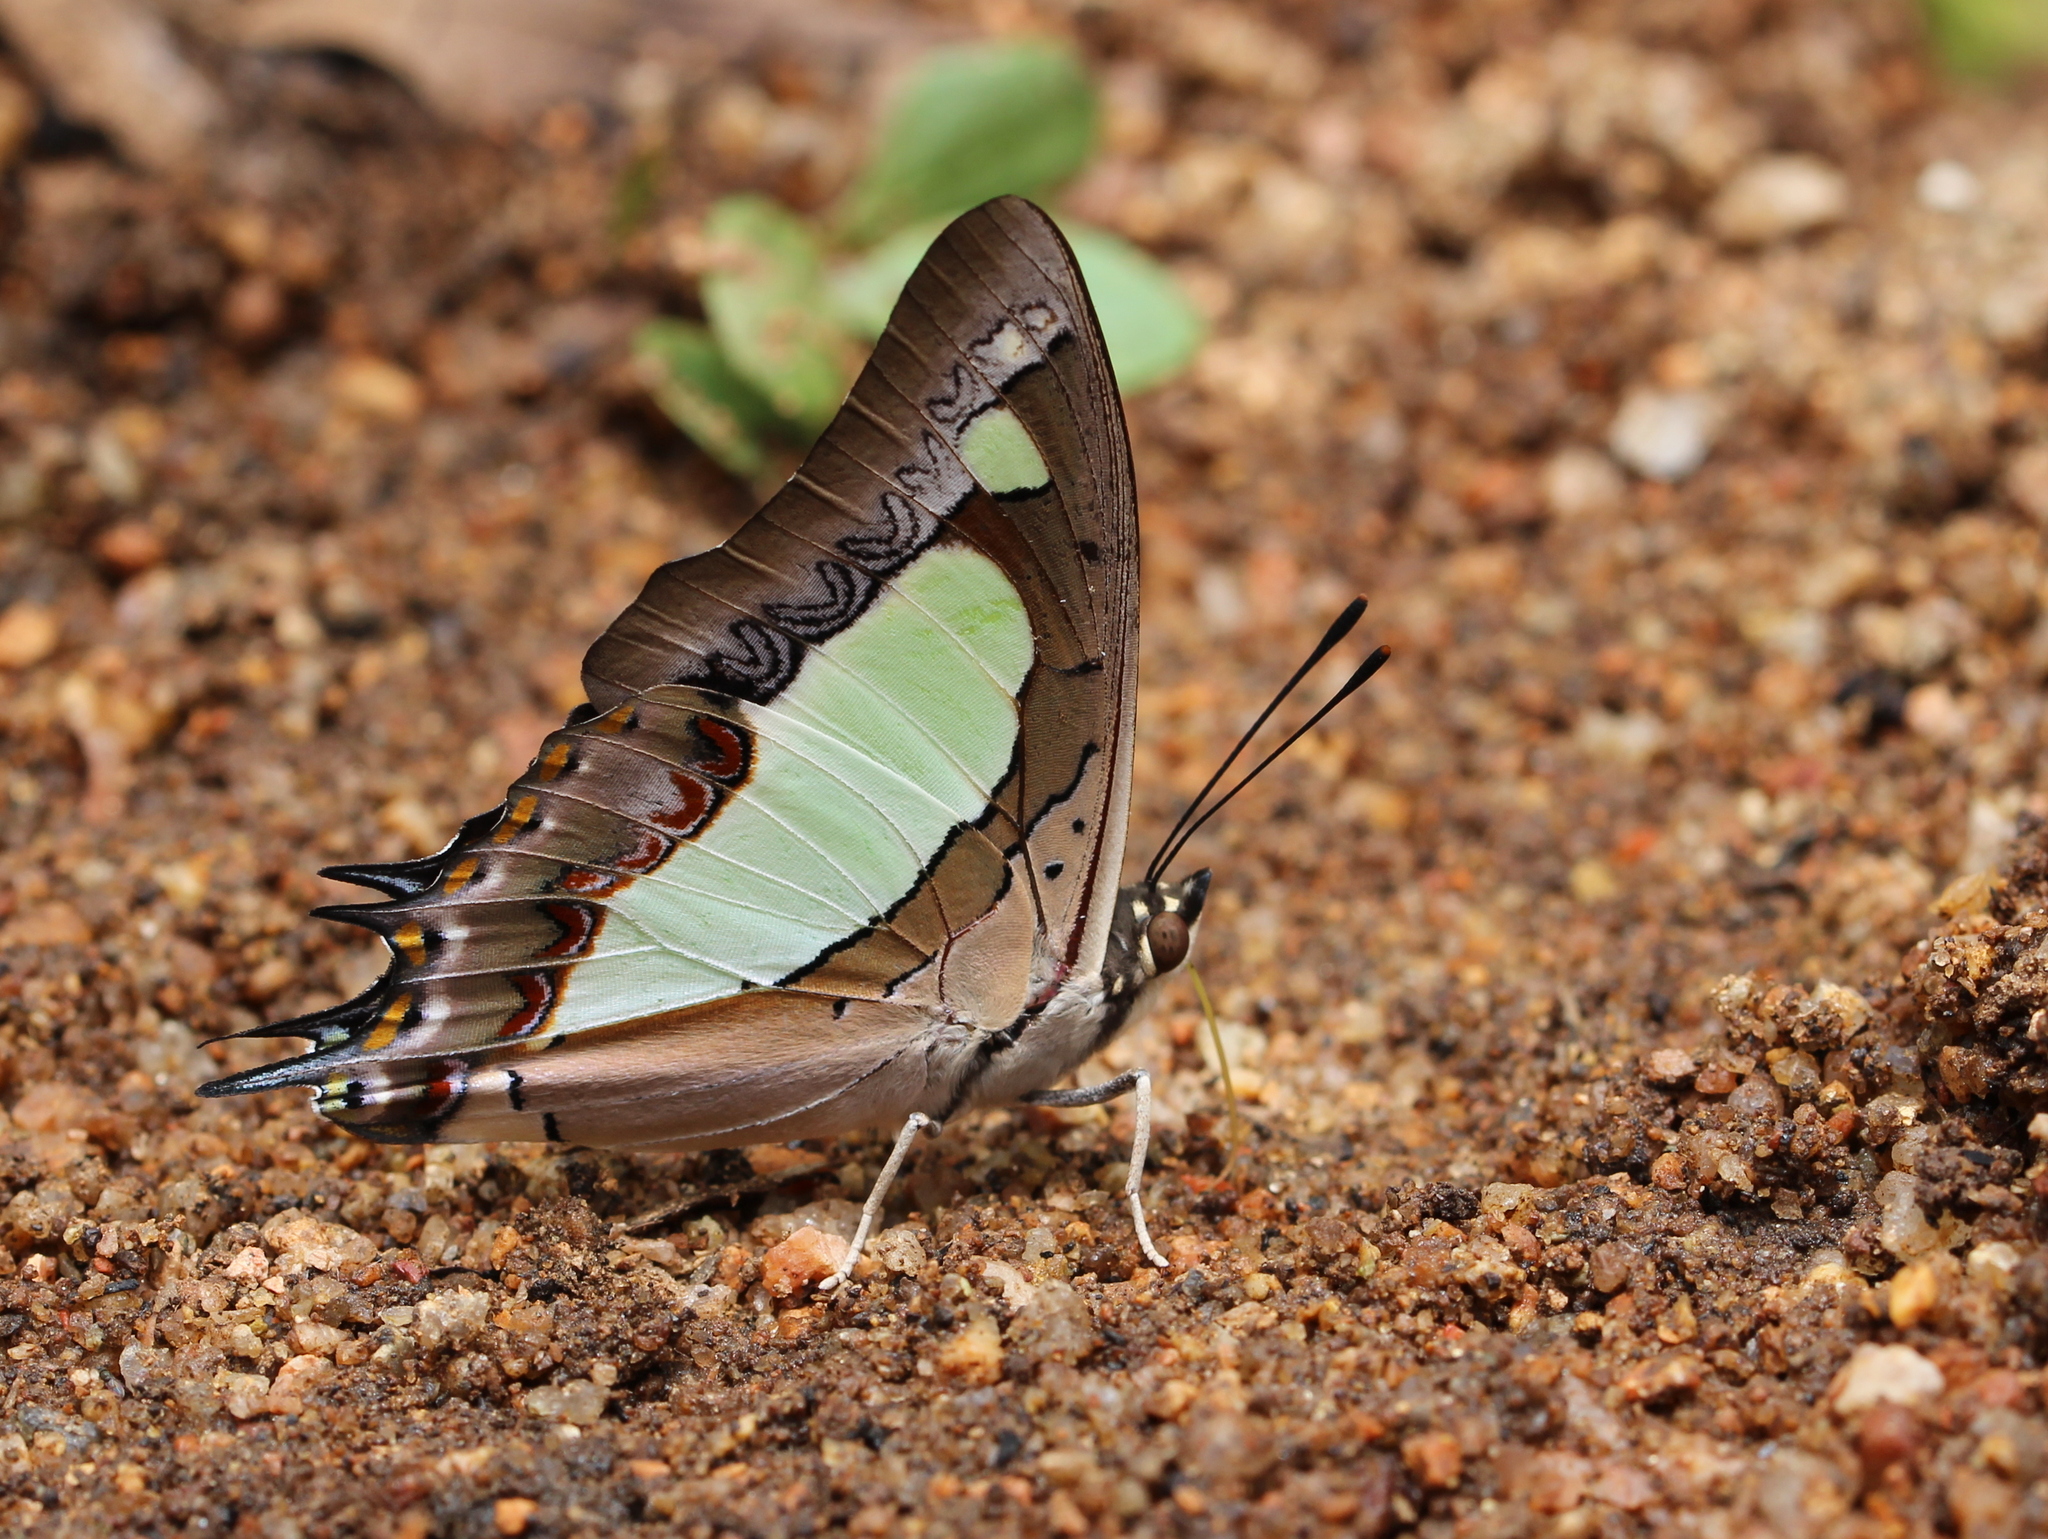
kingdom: Animalia
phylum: Arthropoda
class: Insecta
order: Lepidoptera
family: Nymphalidae
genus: Polyura
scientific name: Polyura agrarius
